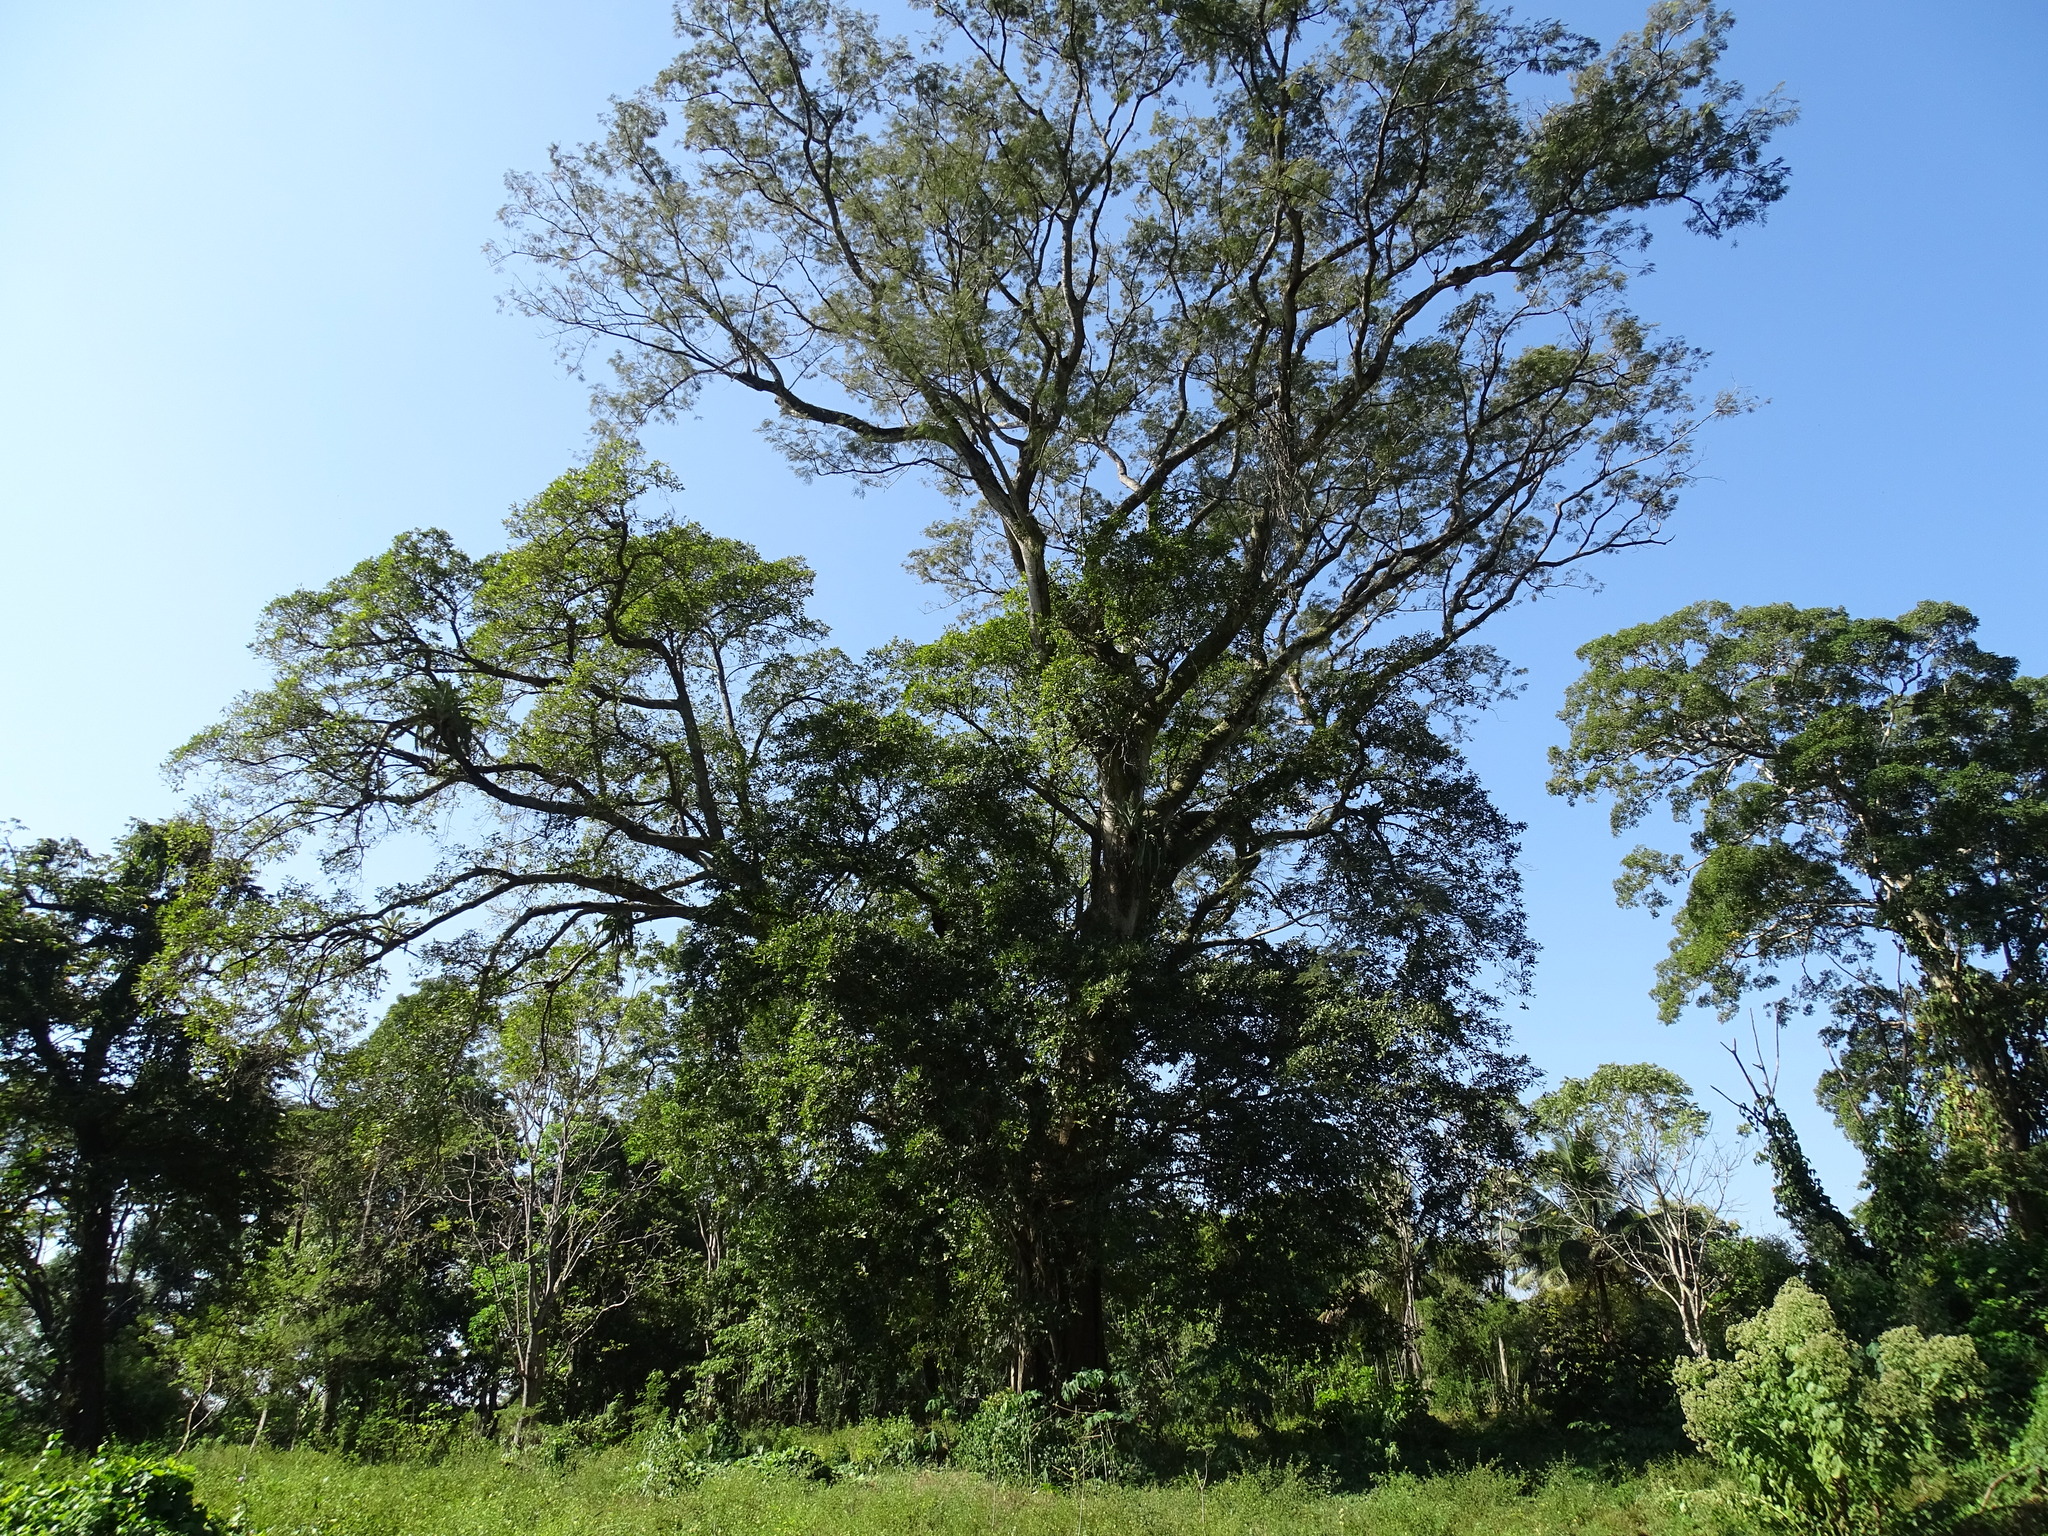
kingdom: Plantae
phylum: Tracheophyta
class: Magnoliopsida
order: Fabales
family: Fabaceae
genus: Enterolobium
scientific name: Enterolobium cyclocarpum
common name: Ear tree
